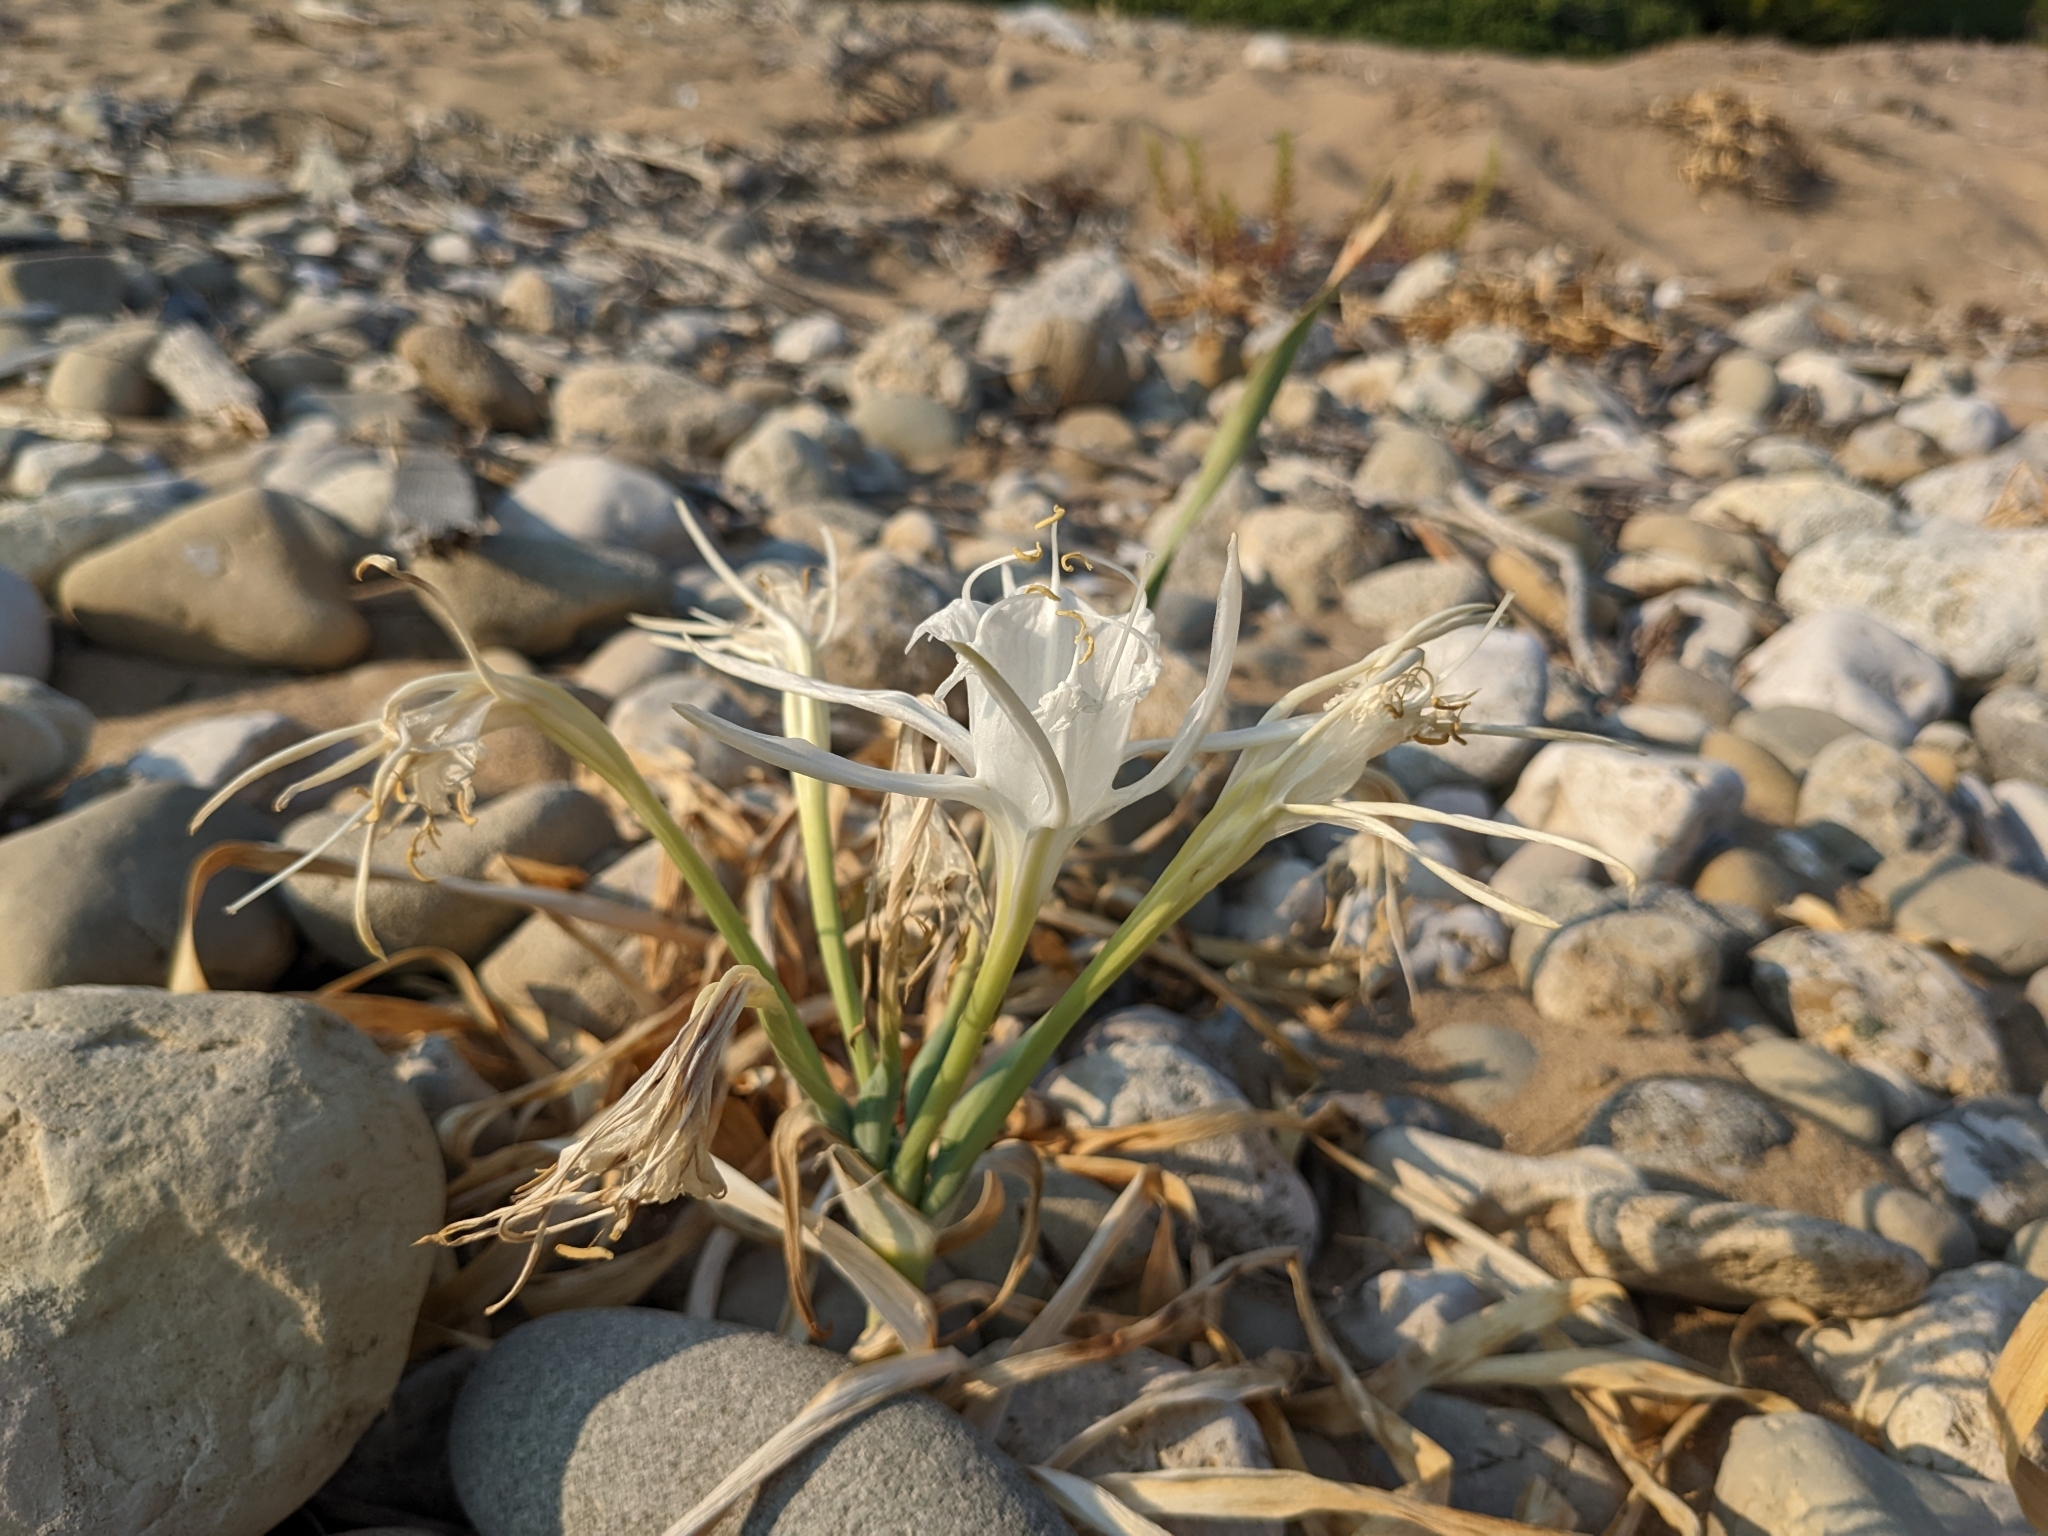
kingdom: Plantae
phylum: Tracheophyta
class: Liliopsida
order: Asparagales
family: Amaryllidaceae
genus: Pancratium
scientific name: Pancratium maritimum
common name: Sea-daffodil
